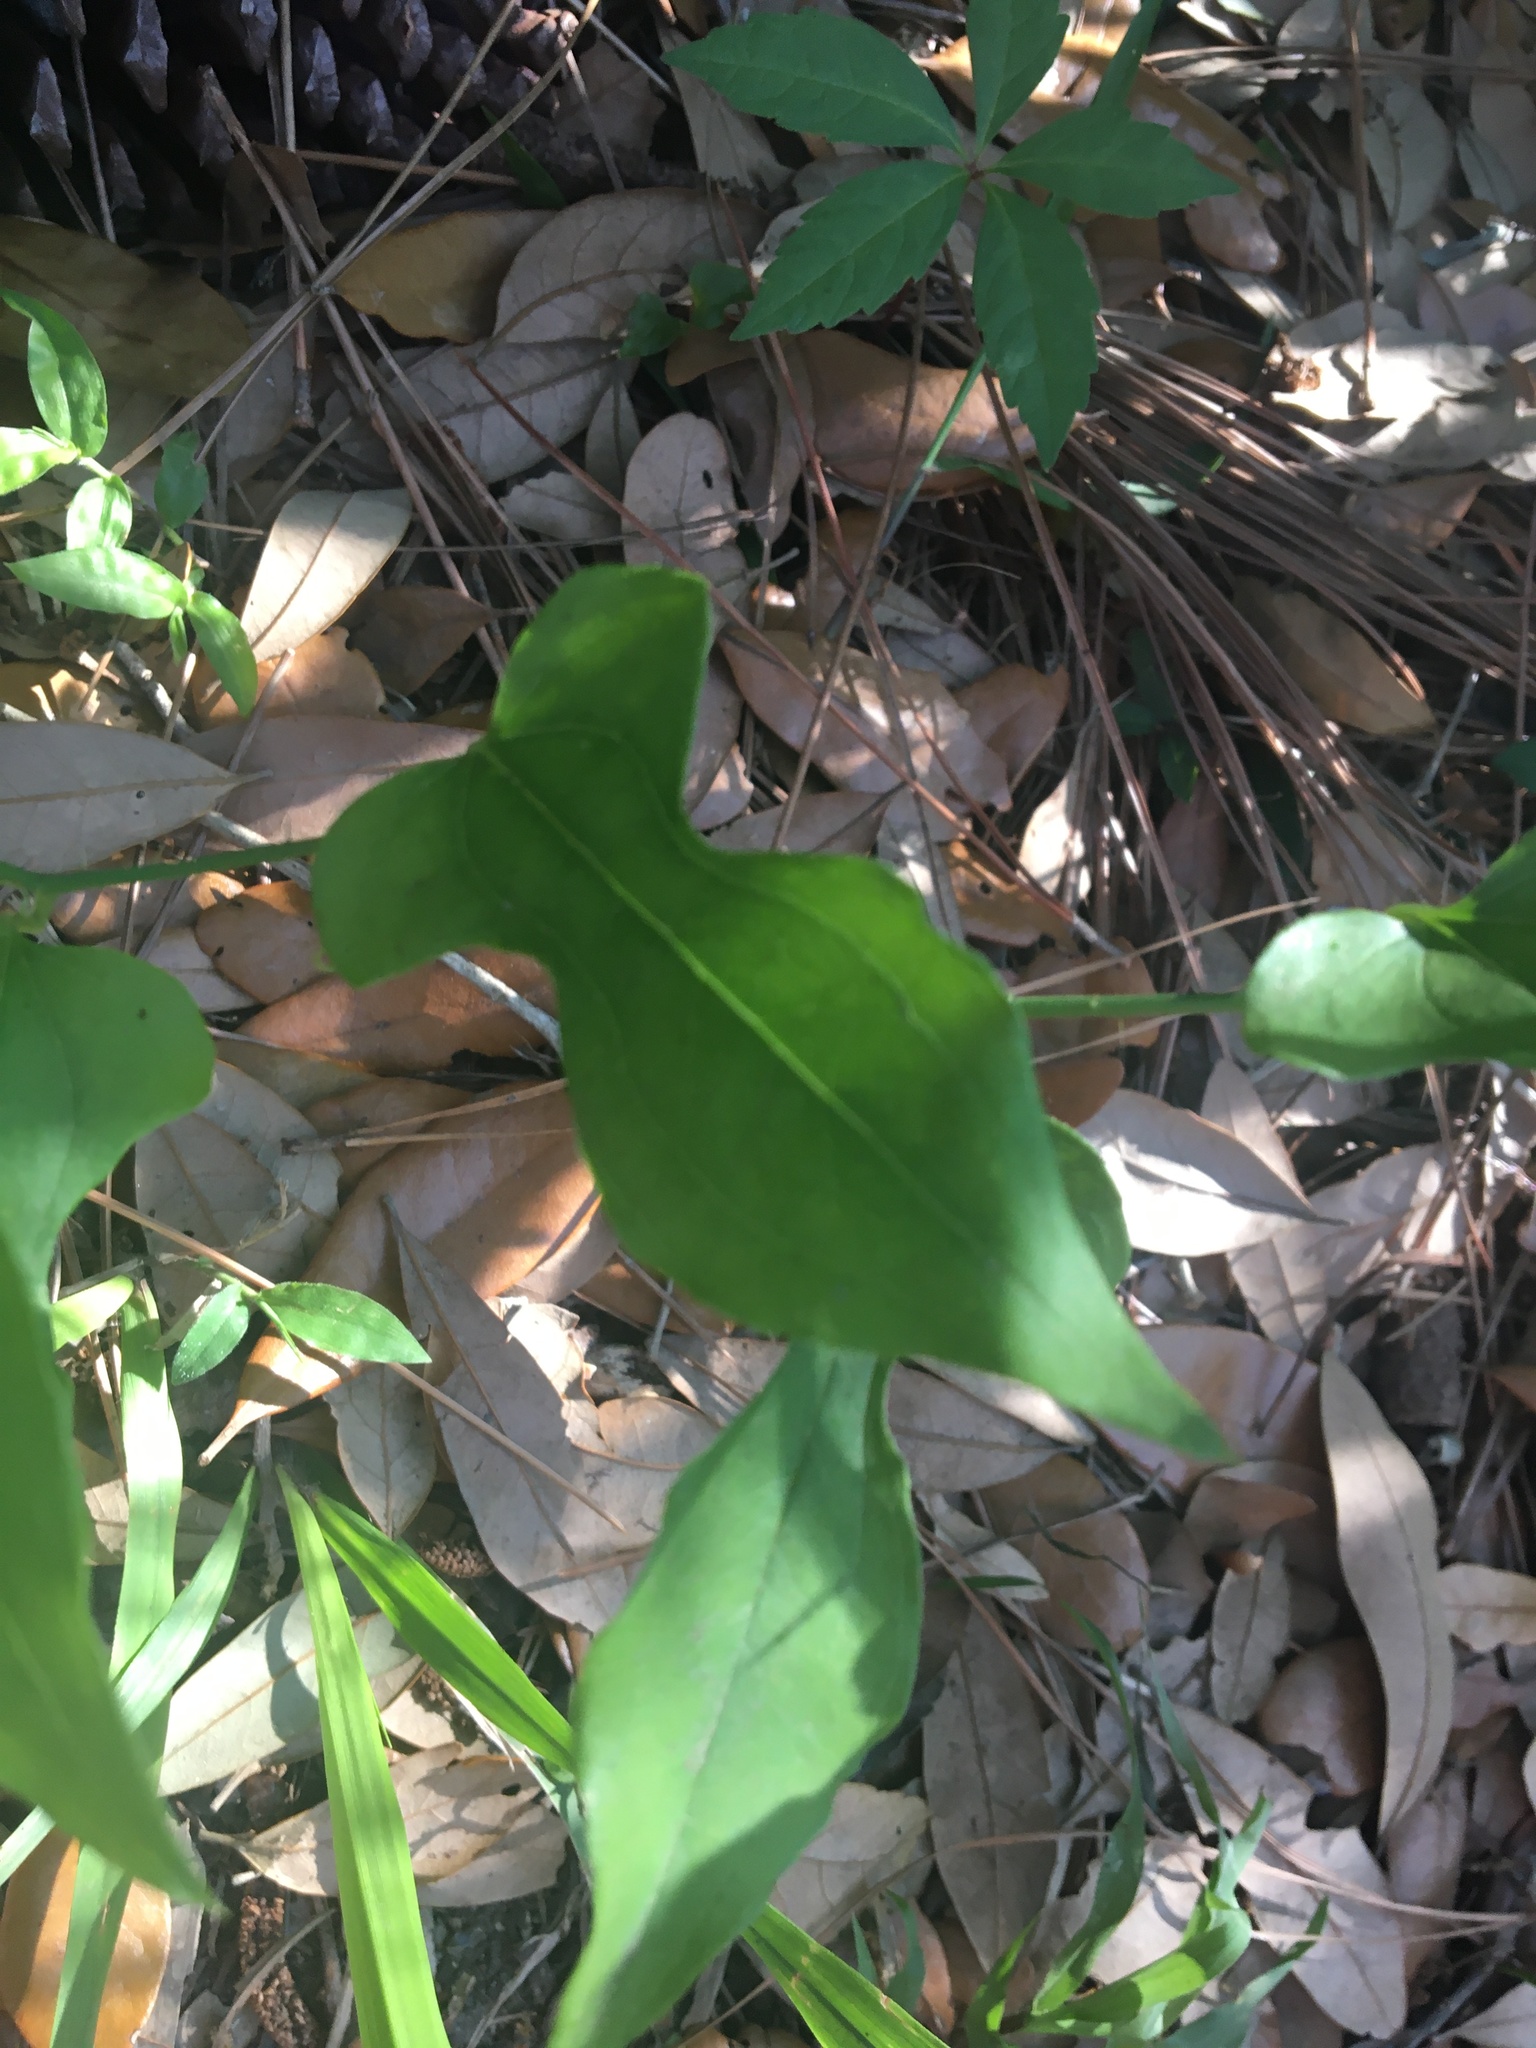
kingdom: Plantae
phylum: Tracheophyta
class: Liliopsida
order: Liliales
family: Smilacaceae
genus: Smilax
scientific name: Smilax tamnoides
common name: Hellfetter
